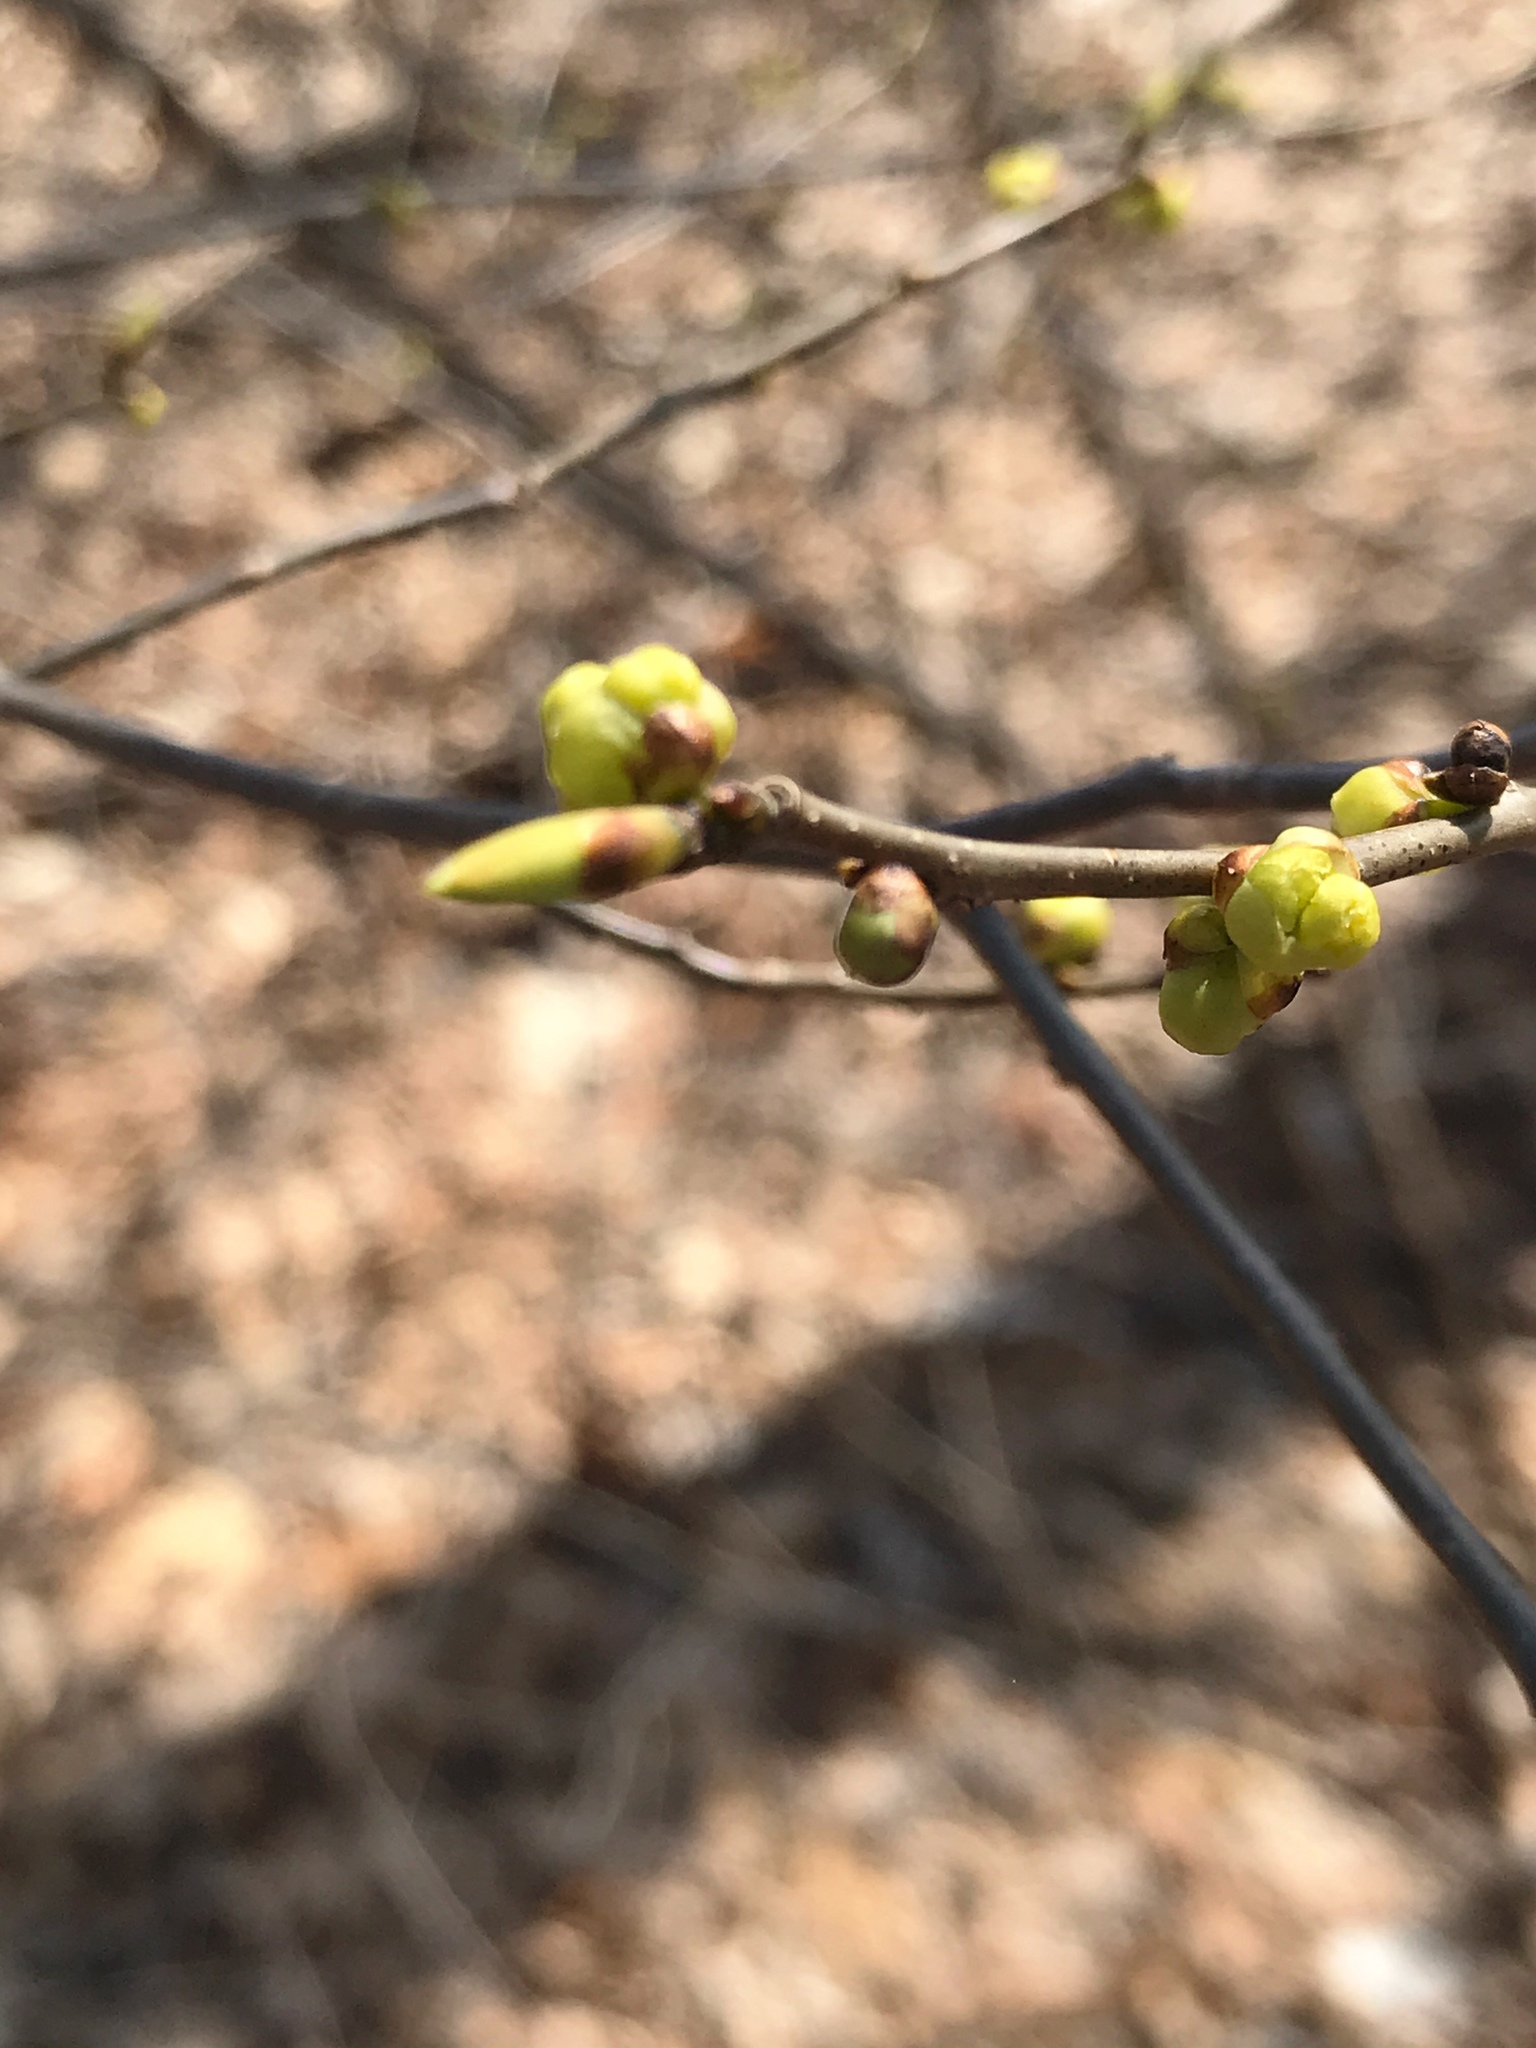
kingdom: Plantae
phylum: Tracheophyta
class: Magnoliopsida
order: Laurales
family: Lauraceae
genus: Lindera
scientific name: Lindera benzoin
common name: Spicebush
